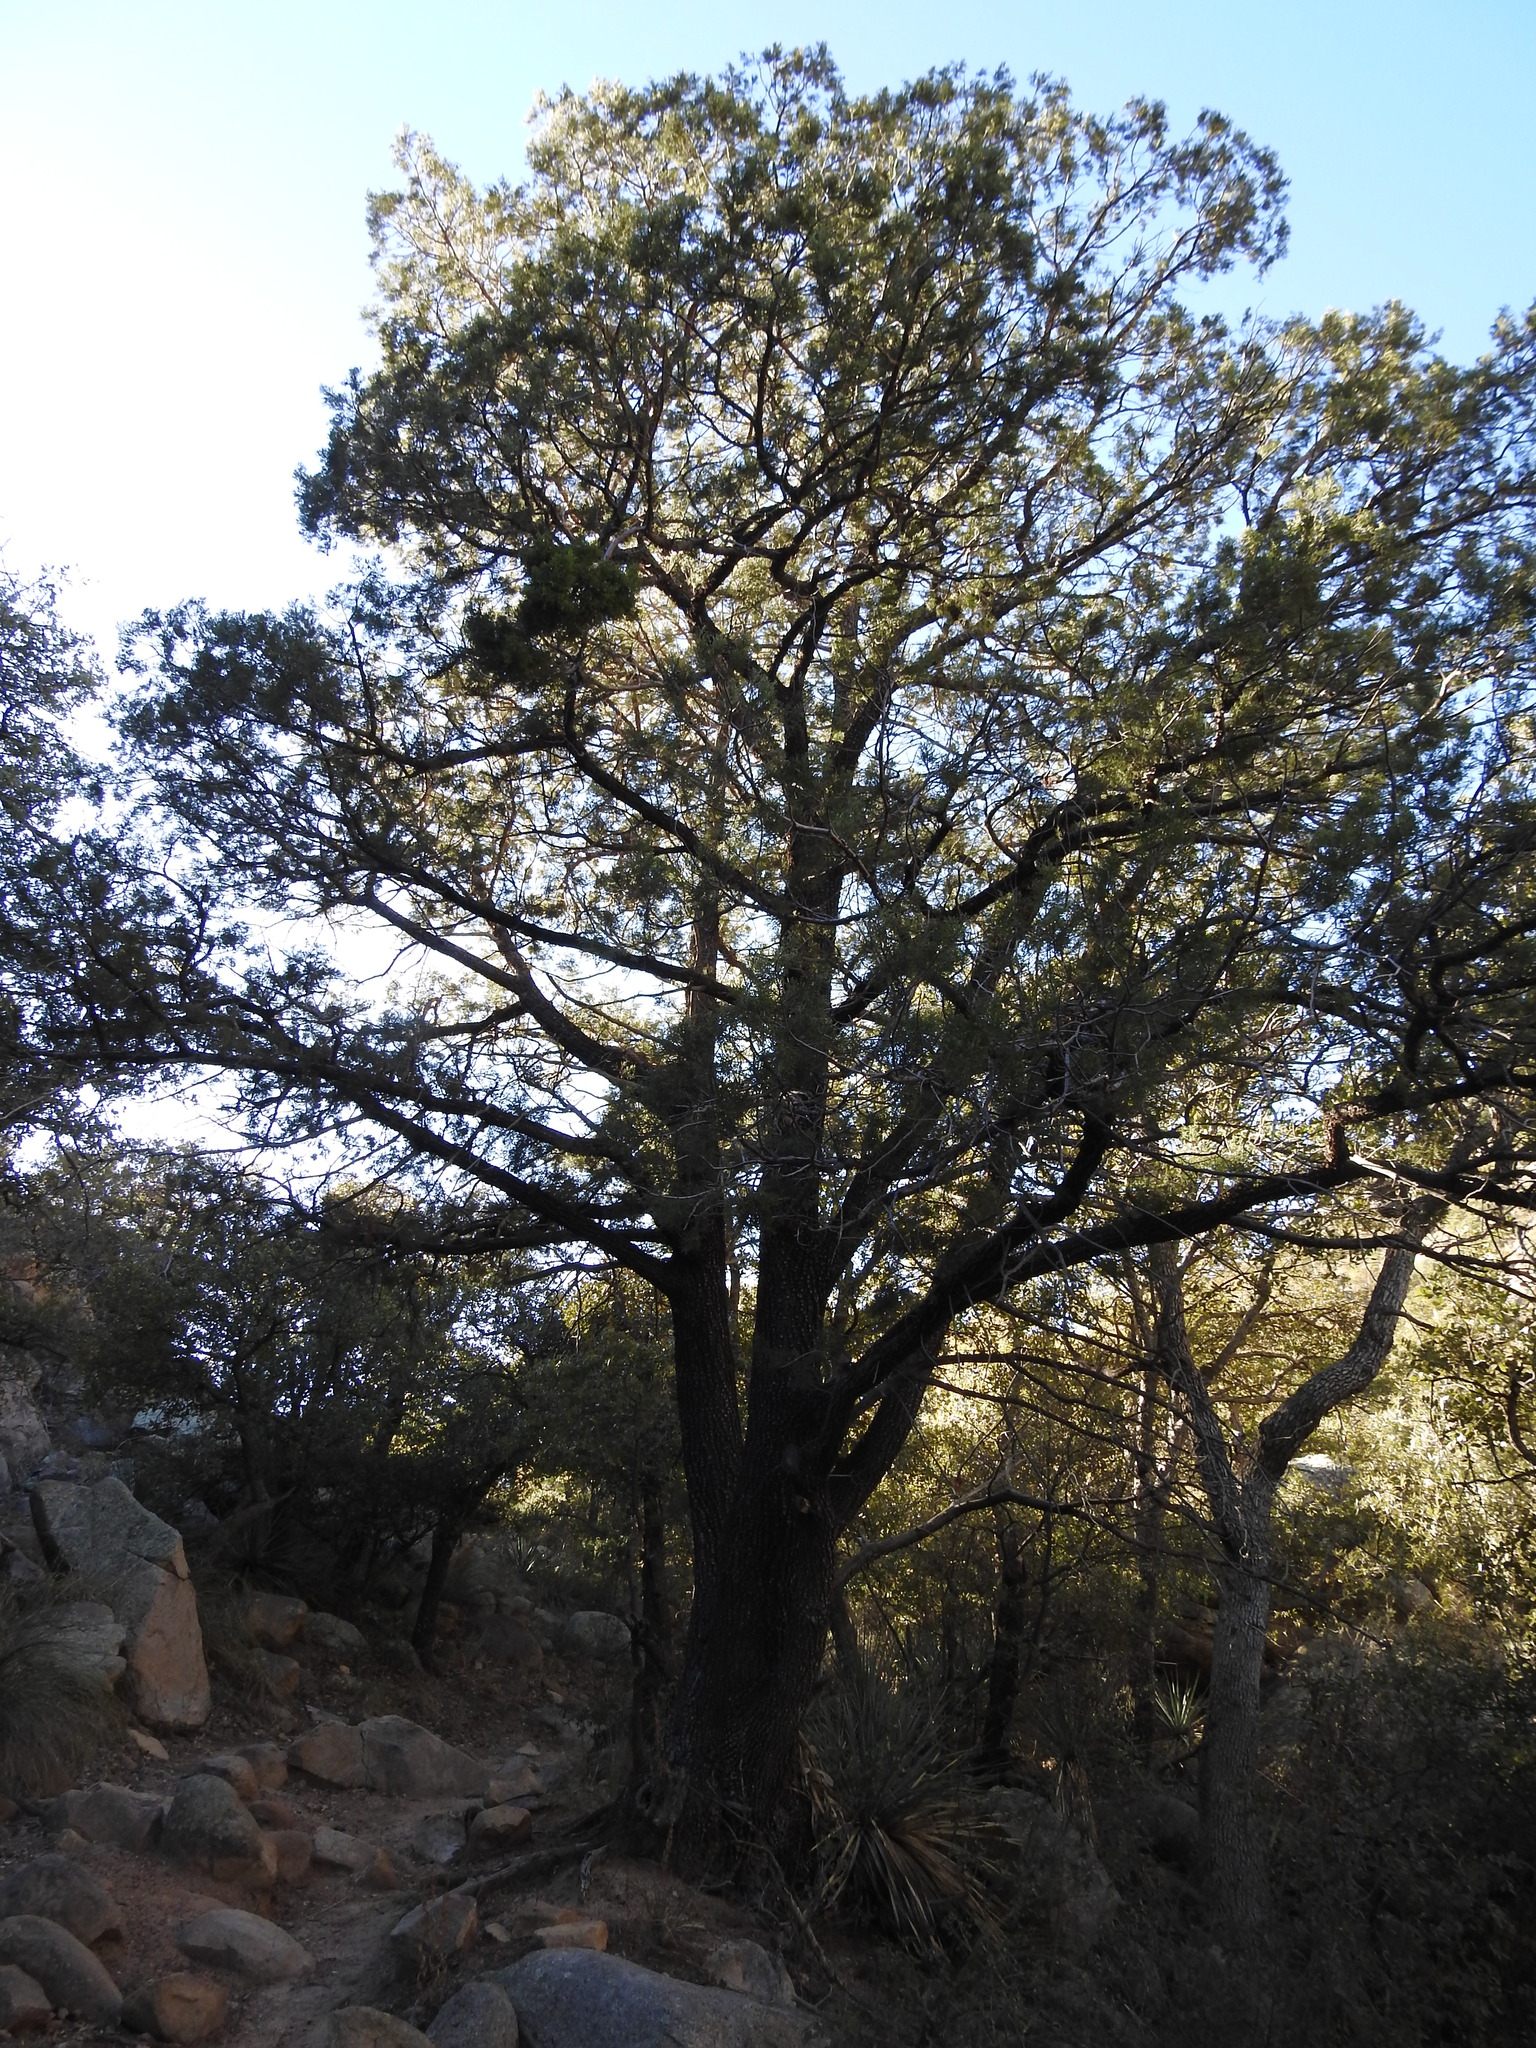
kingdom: Plantae
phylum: Tracheophyta
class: Pinopsida
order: Pinales
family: Cupressaceae
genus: Juniperus
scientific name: Juniperus deppeana
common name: Alligator juniper
